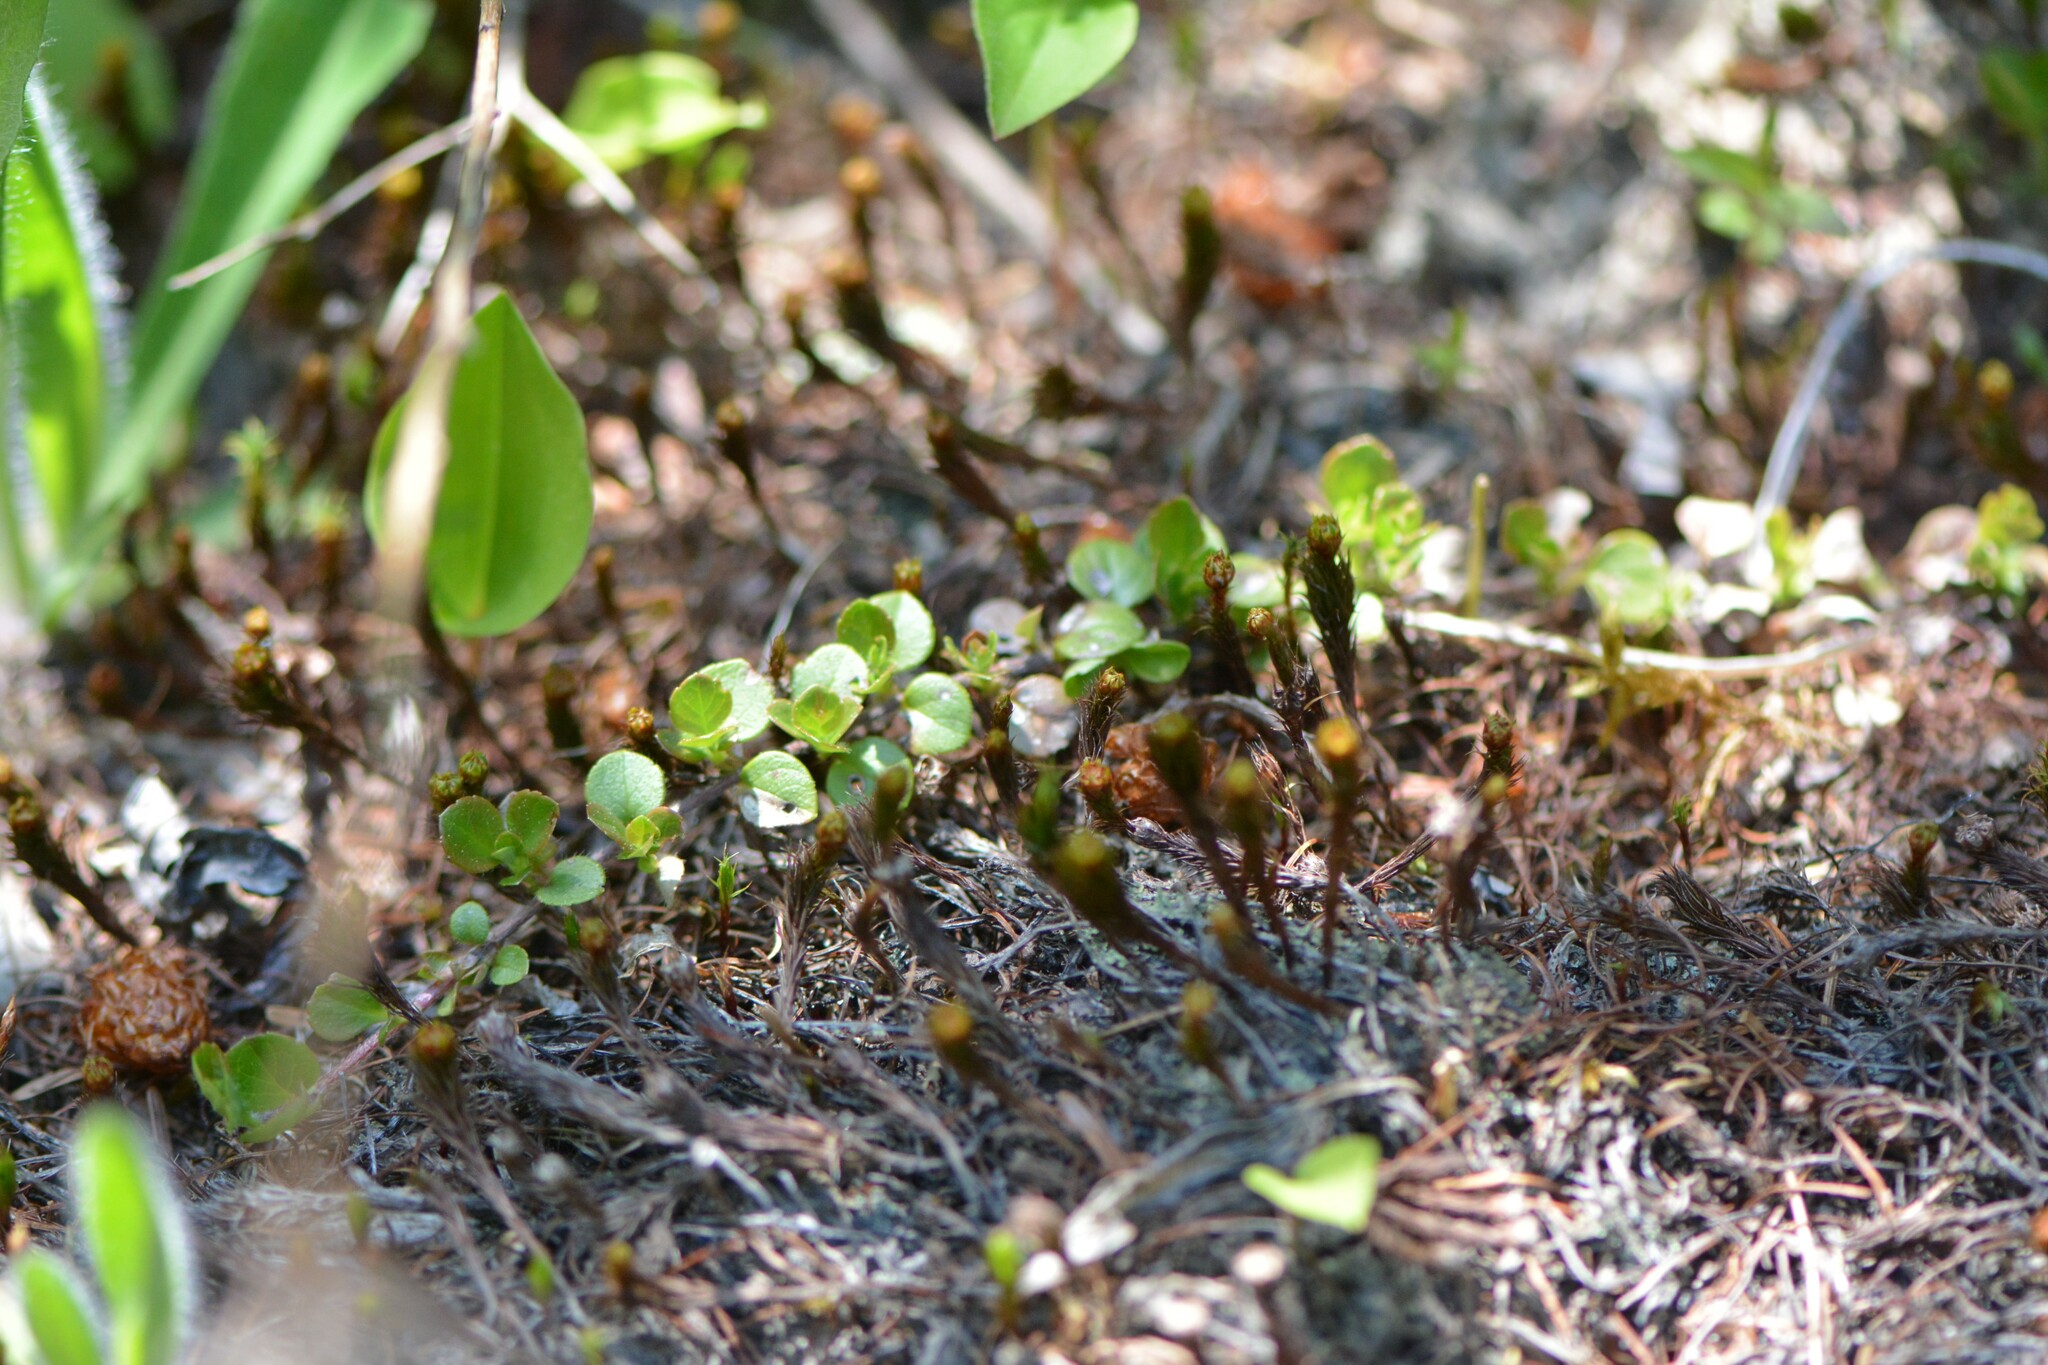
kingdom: Plantae
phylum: Tracheophyta
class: Magnoliopsida
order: Dipsacales
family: Caprifoliaceae
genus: Linnaea
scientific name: Linnaea borealis
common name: Twinflower
